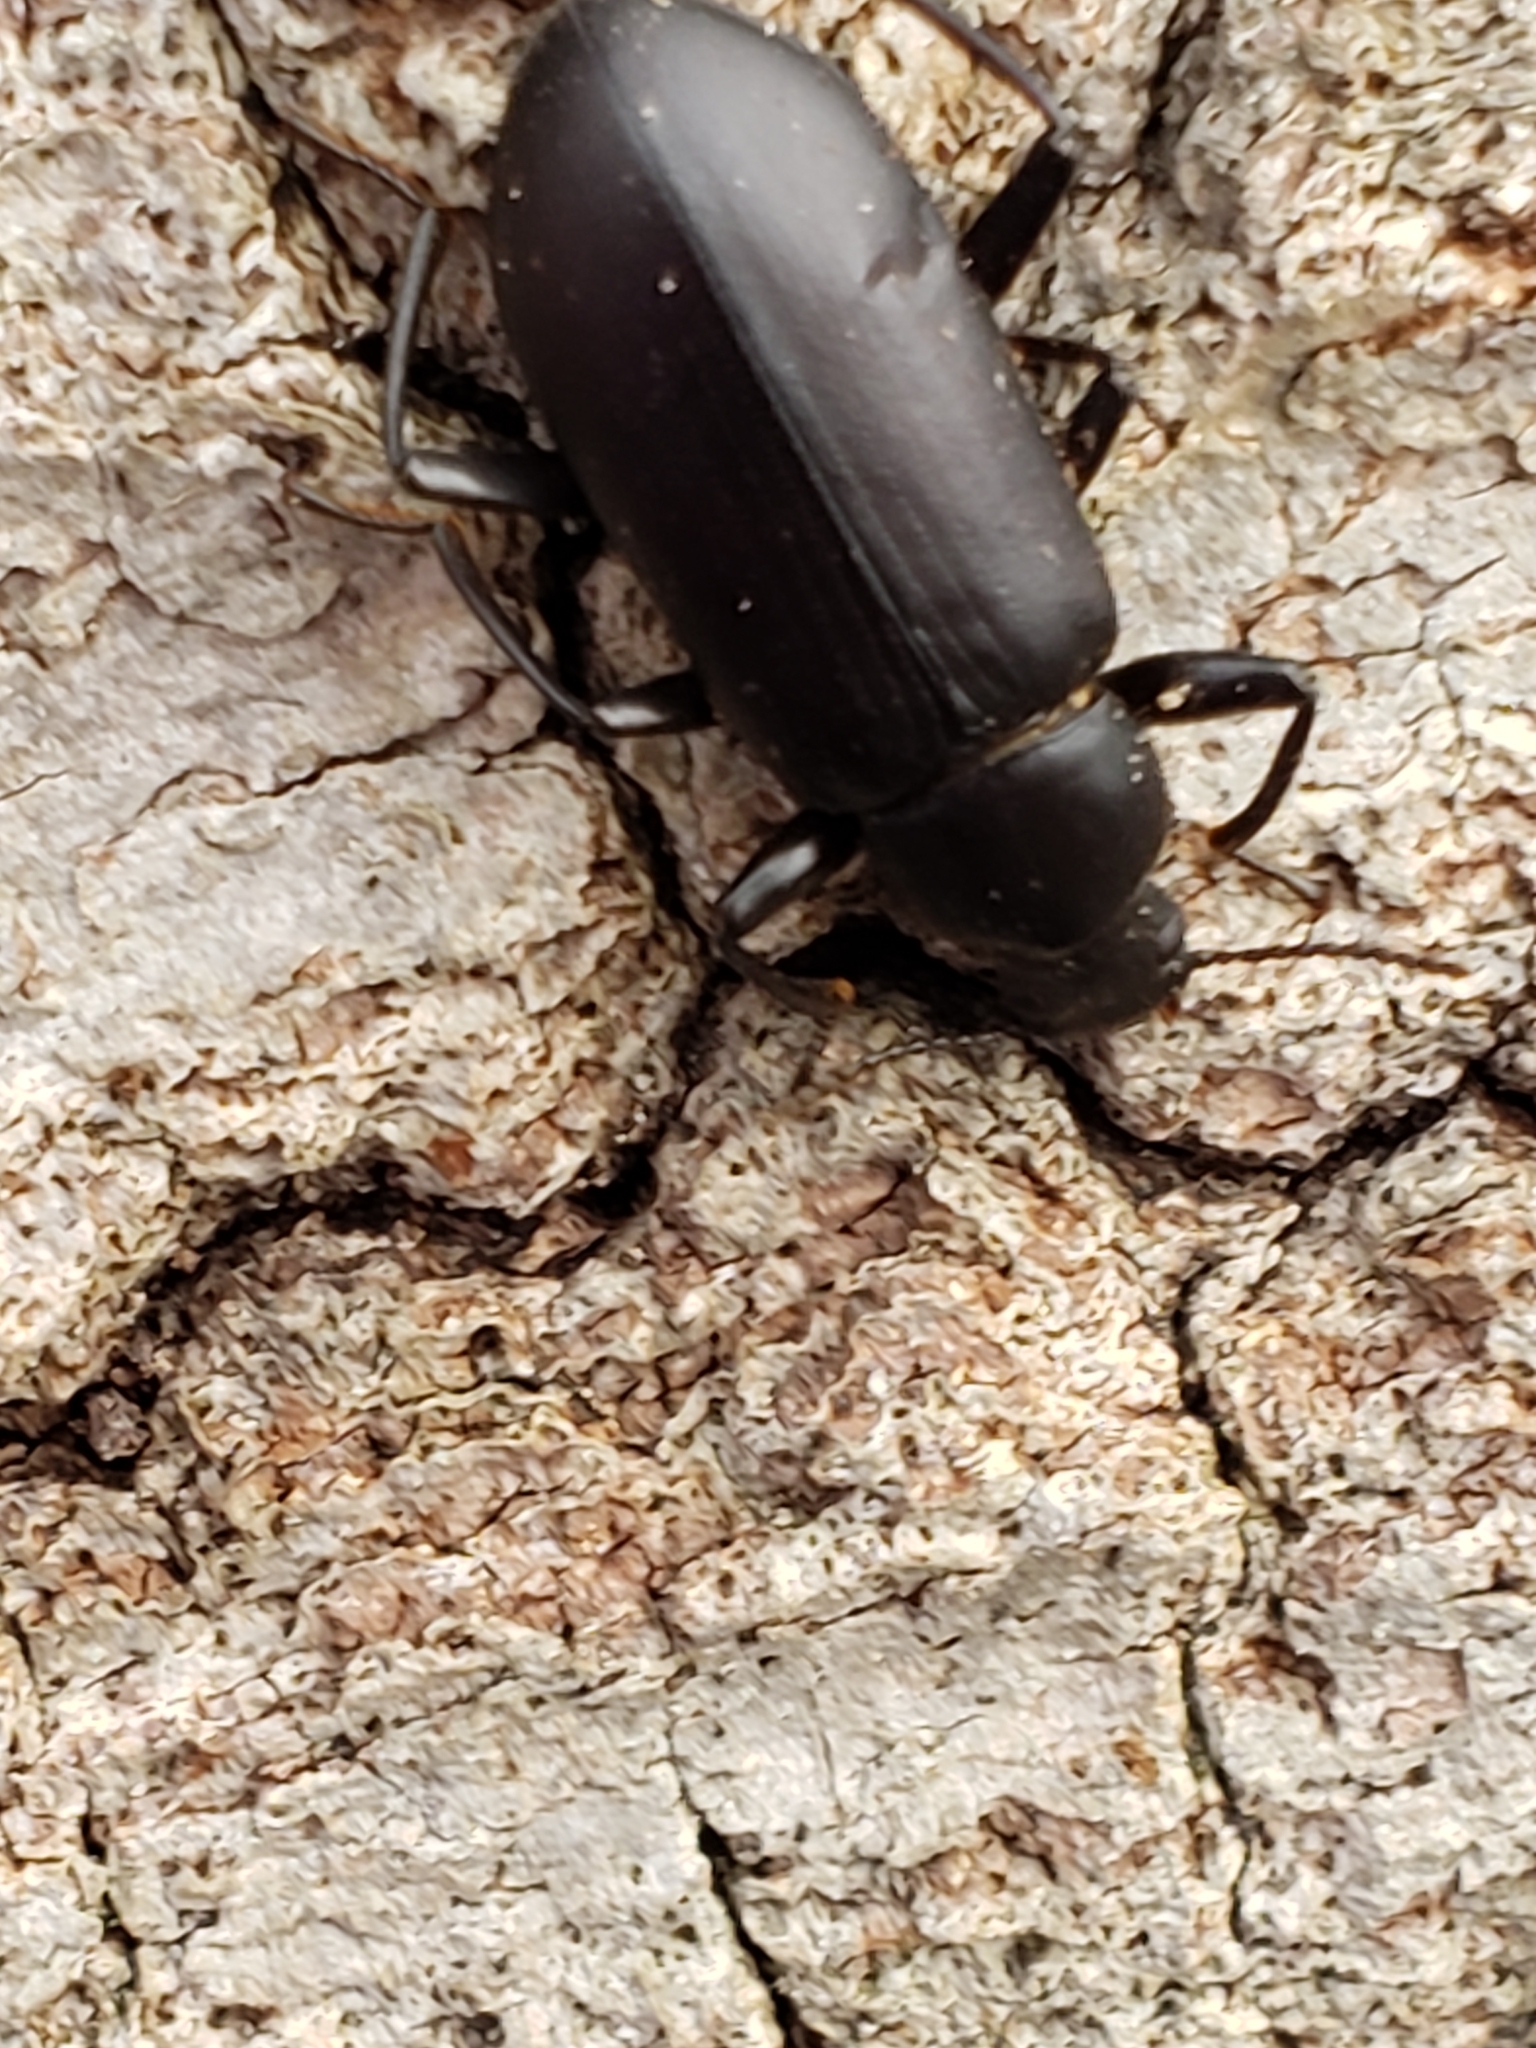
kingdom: Animalia
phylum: Arthropoda
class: Insecta
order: Coleoptera
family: Tenebrionidae
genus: Alobates
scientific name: Alobates
